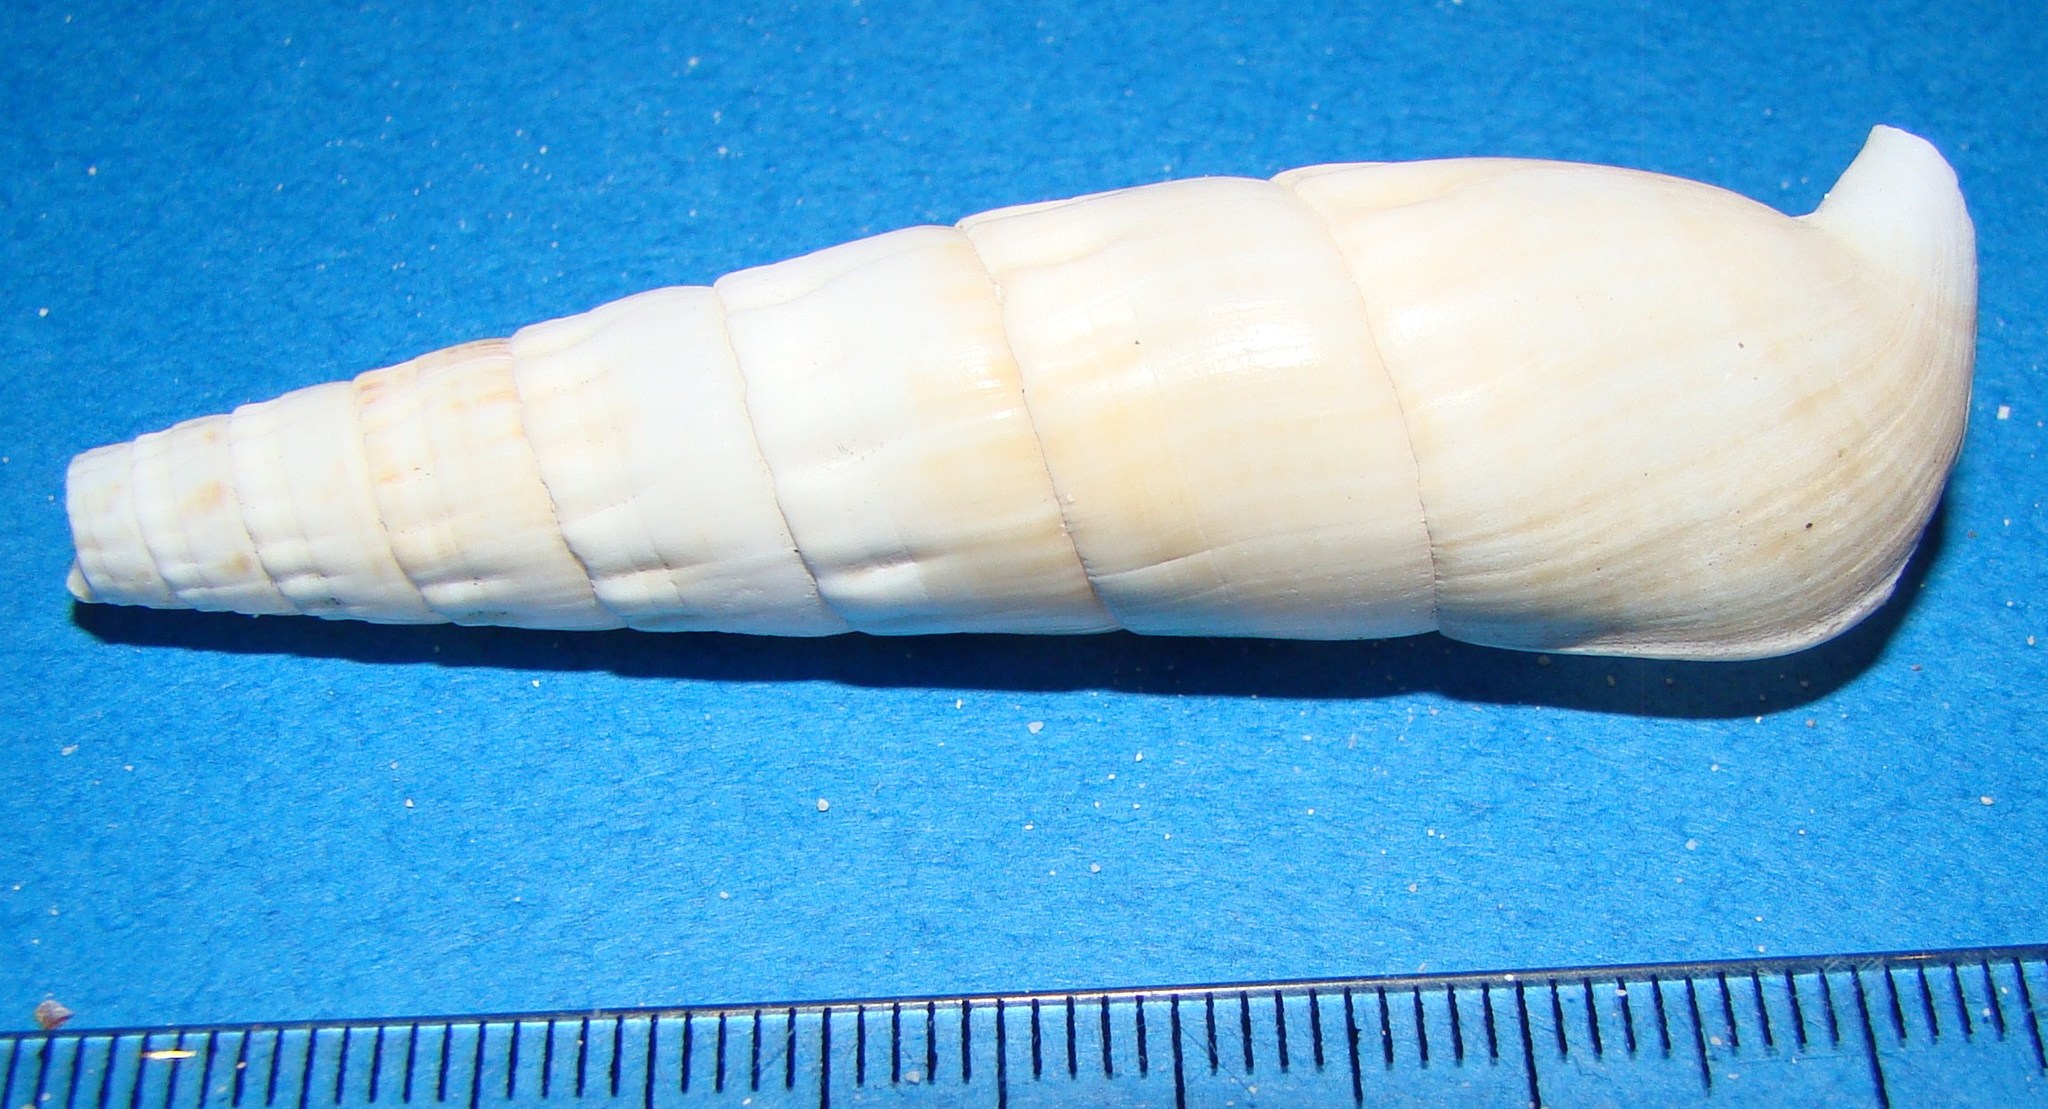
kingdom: Animalia
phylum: Mollusca
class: Gastropoda
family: Cerithiidae
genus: Rhinoclavis
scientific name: Rhinoclavis fasciata
